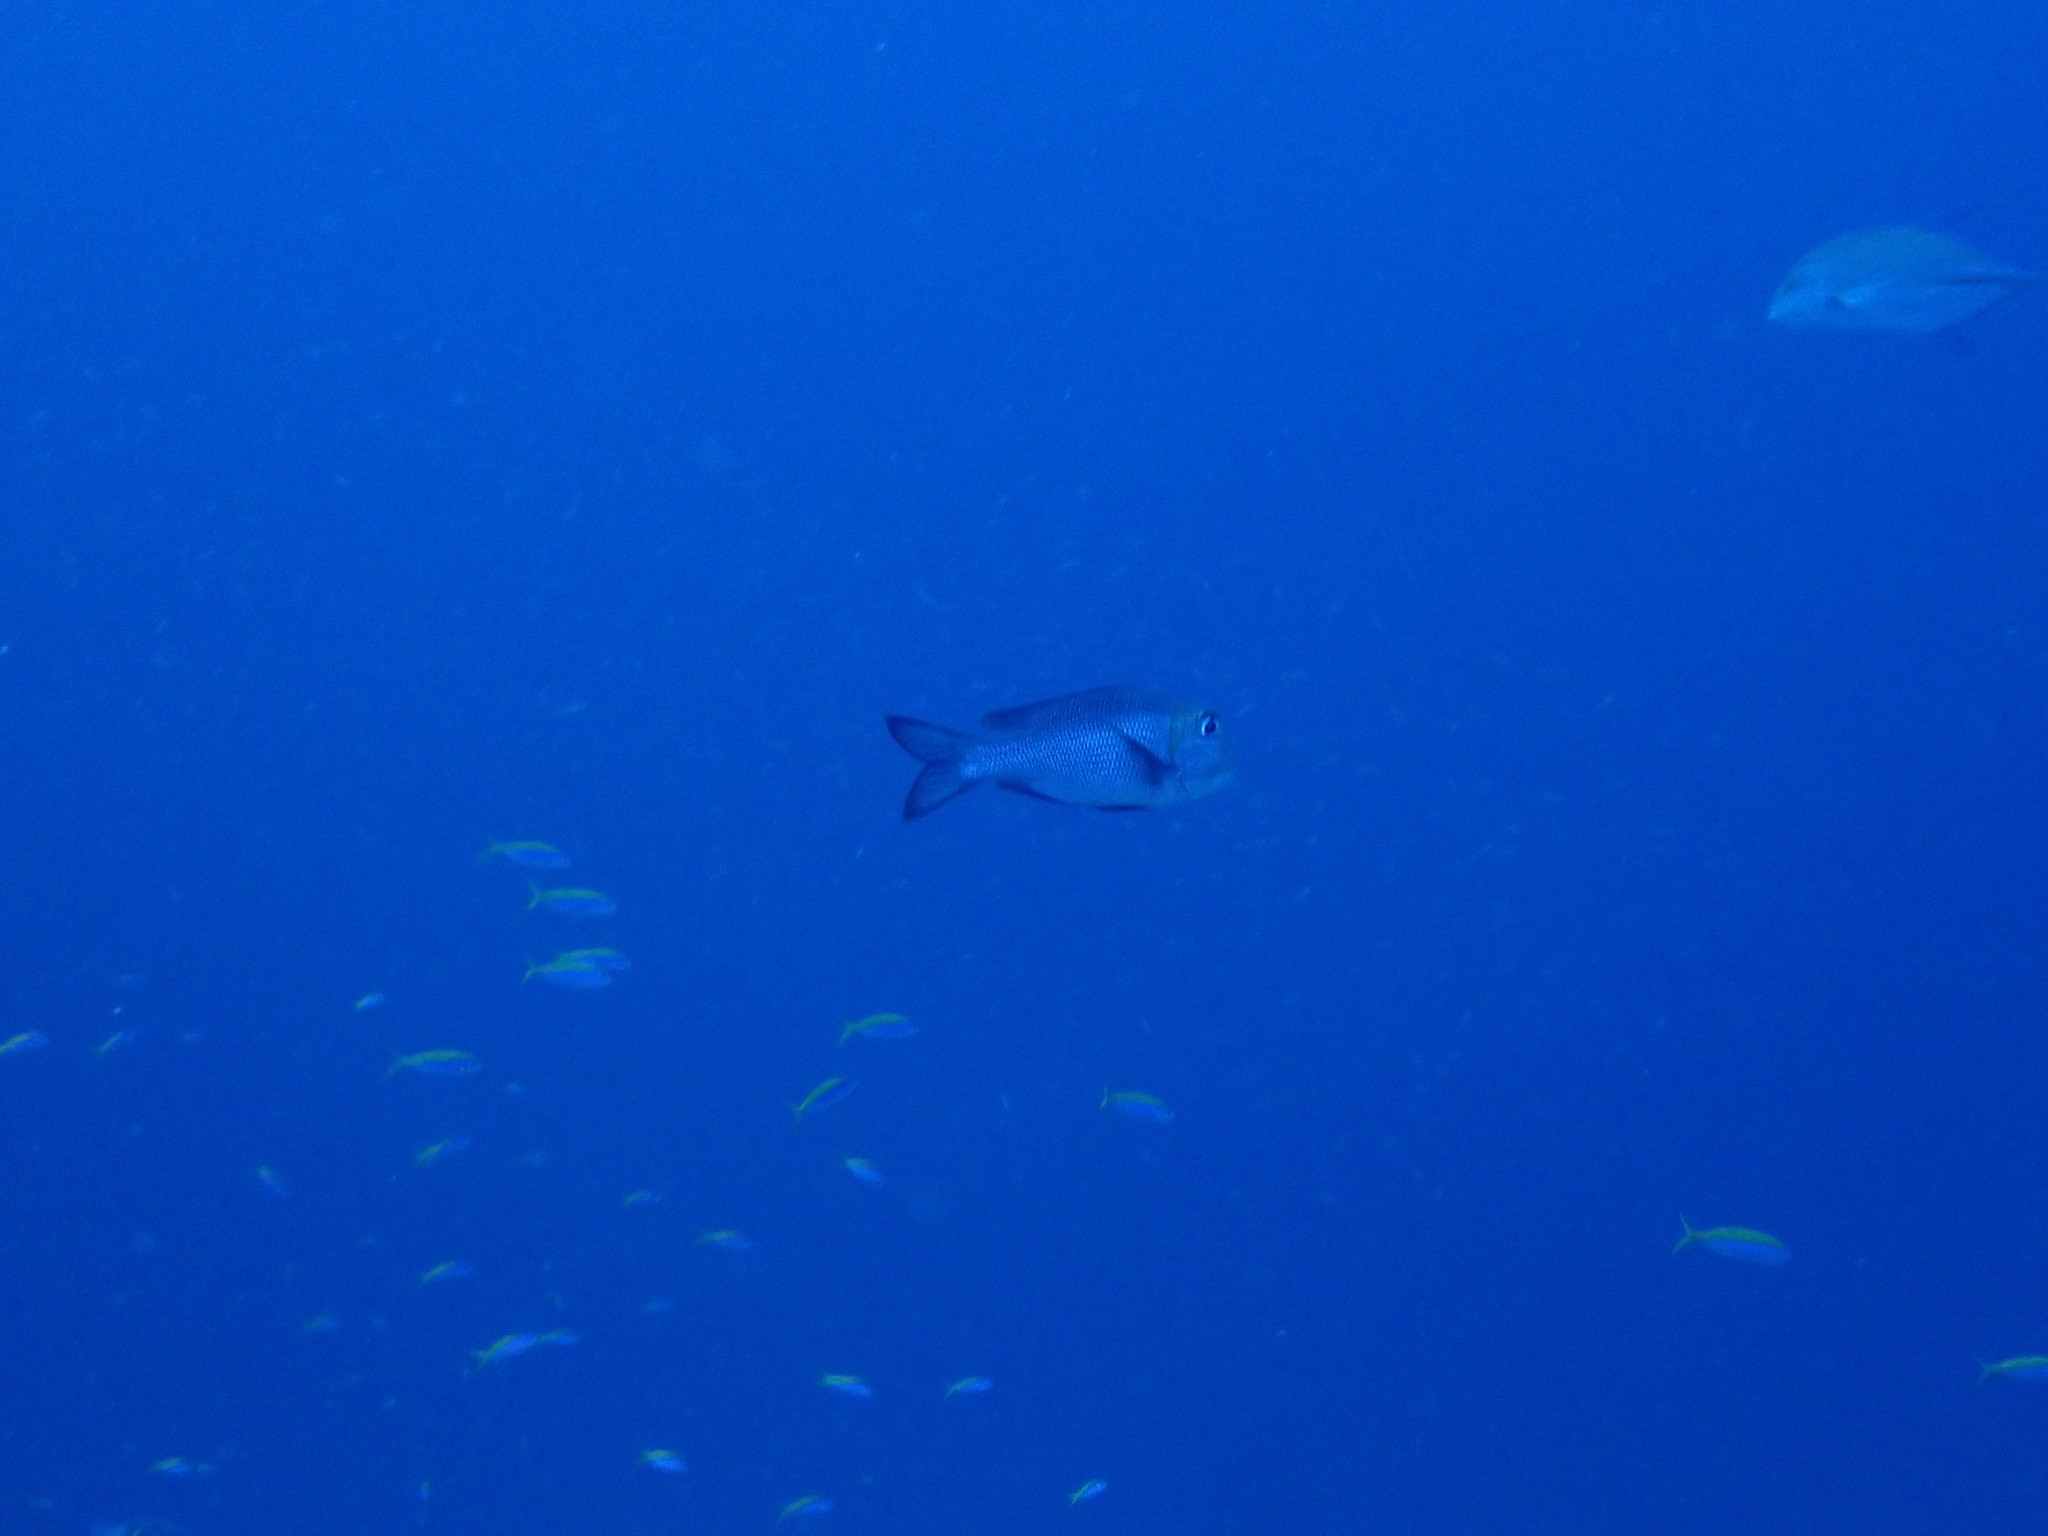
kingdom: Animalia
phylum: Chordata
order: Perciformes
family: Lethrinidae
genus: Monotaxis
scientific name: Monotaxis grandoculis
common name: Bigeye emperor
